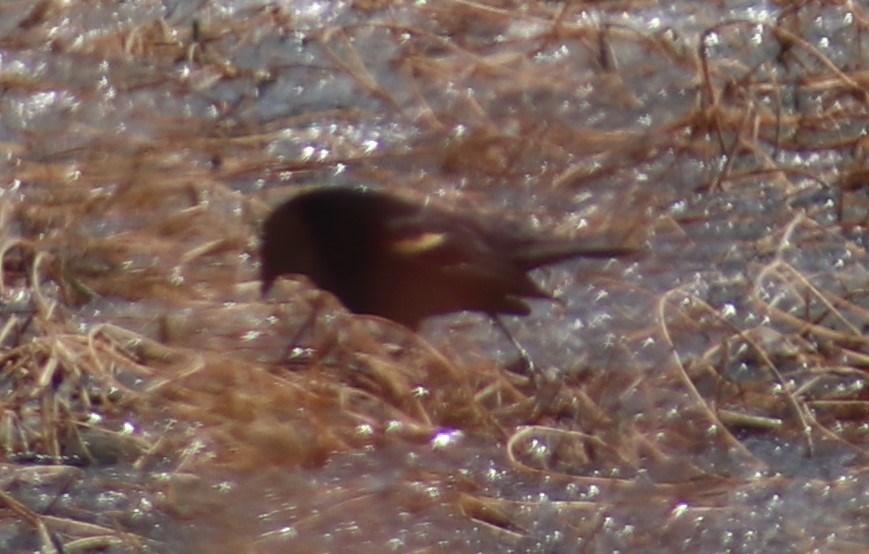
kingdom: Animalia
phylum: Chordata
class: Aves
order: Passeriformes
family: Icteridae
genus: Agelaius
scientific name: Agelaius phoeniceus
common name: Red-winged blackbird
